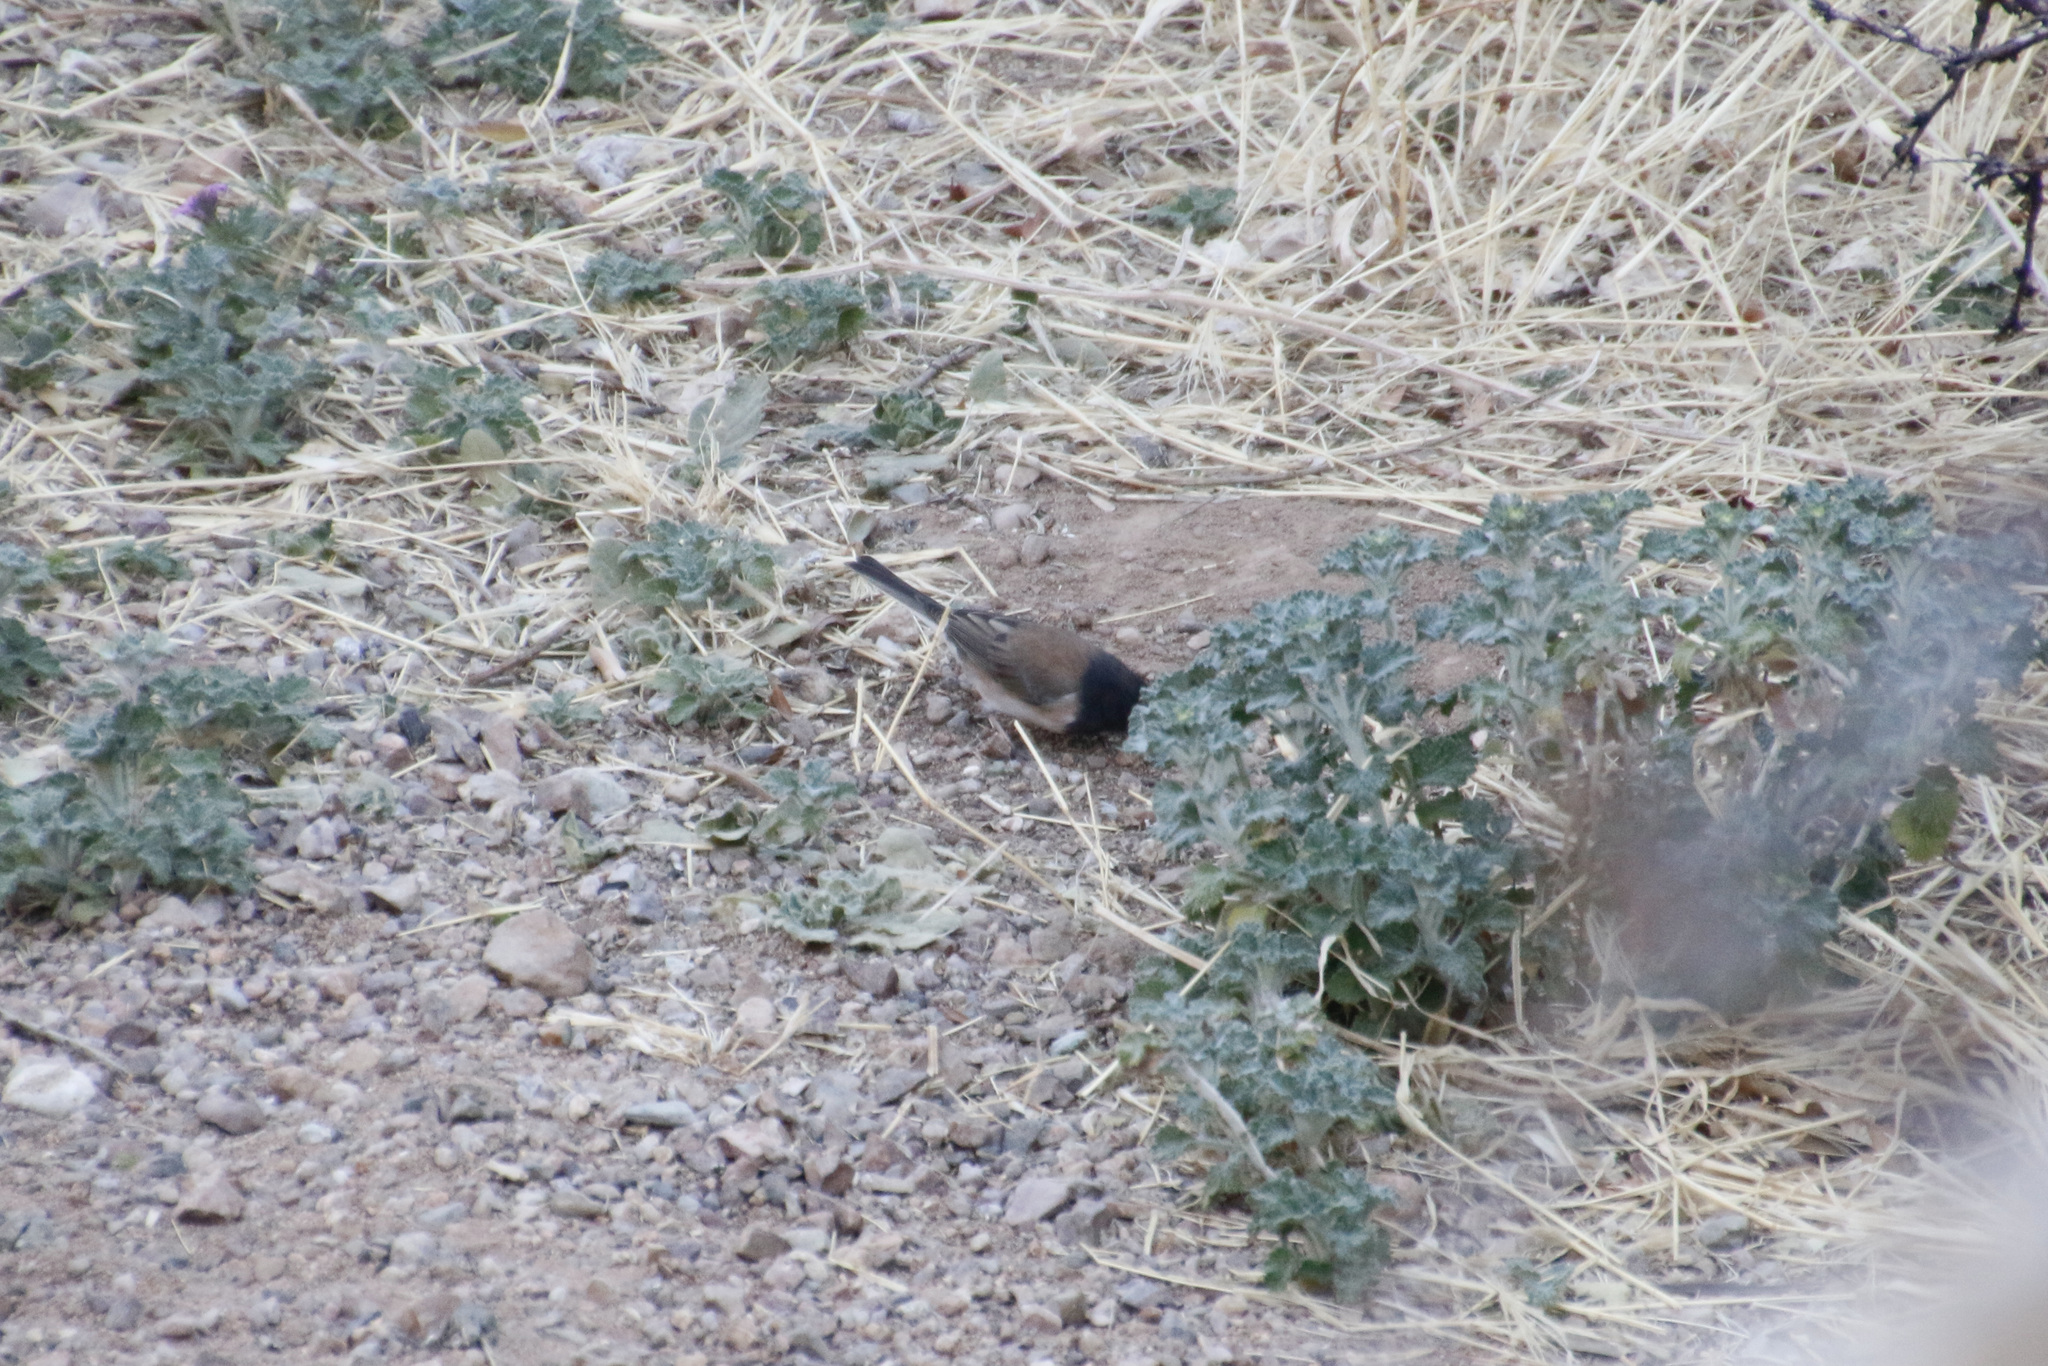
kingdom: Animalia
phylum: Chordata
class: Aves
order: Passeriformes
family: Passerellidae
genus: Junco
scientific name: Junco hyemalis
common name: Dark-eyed junco
